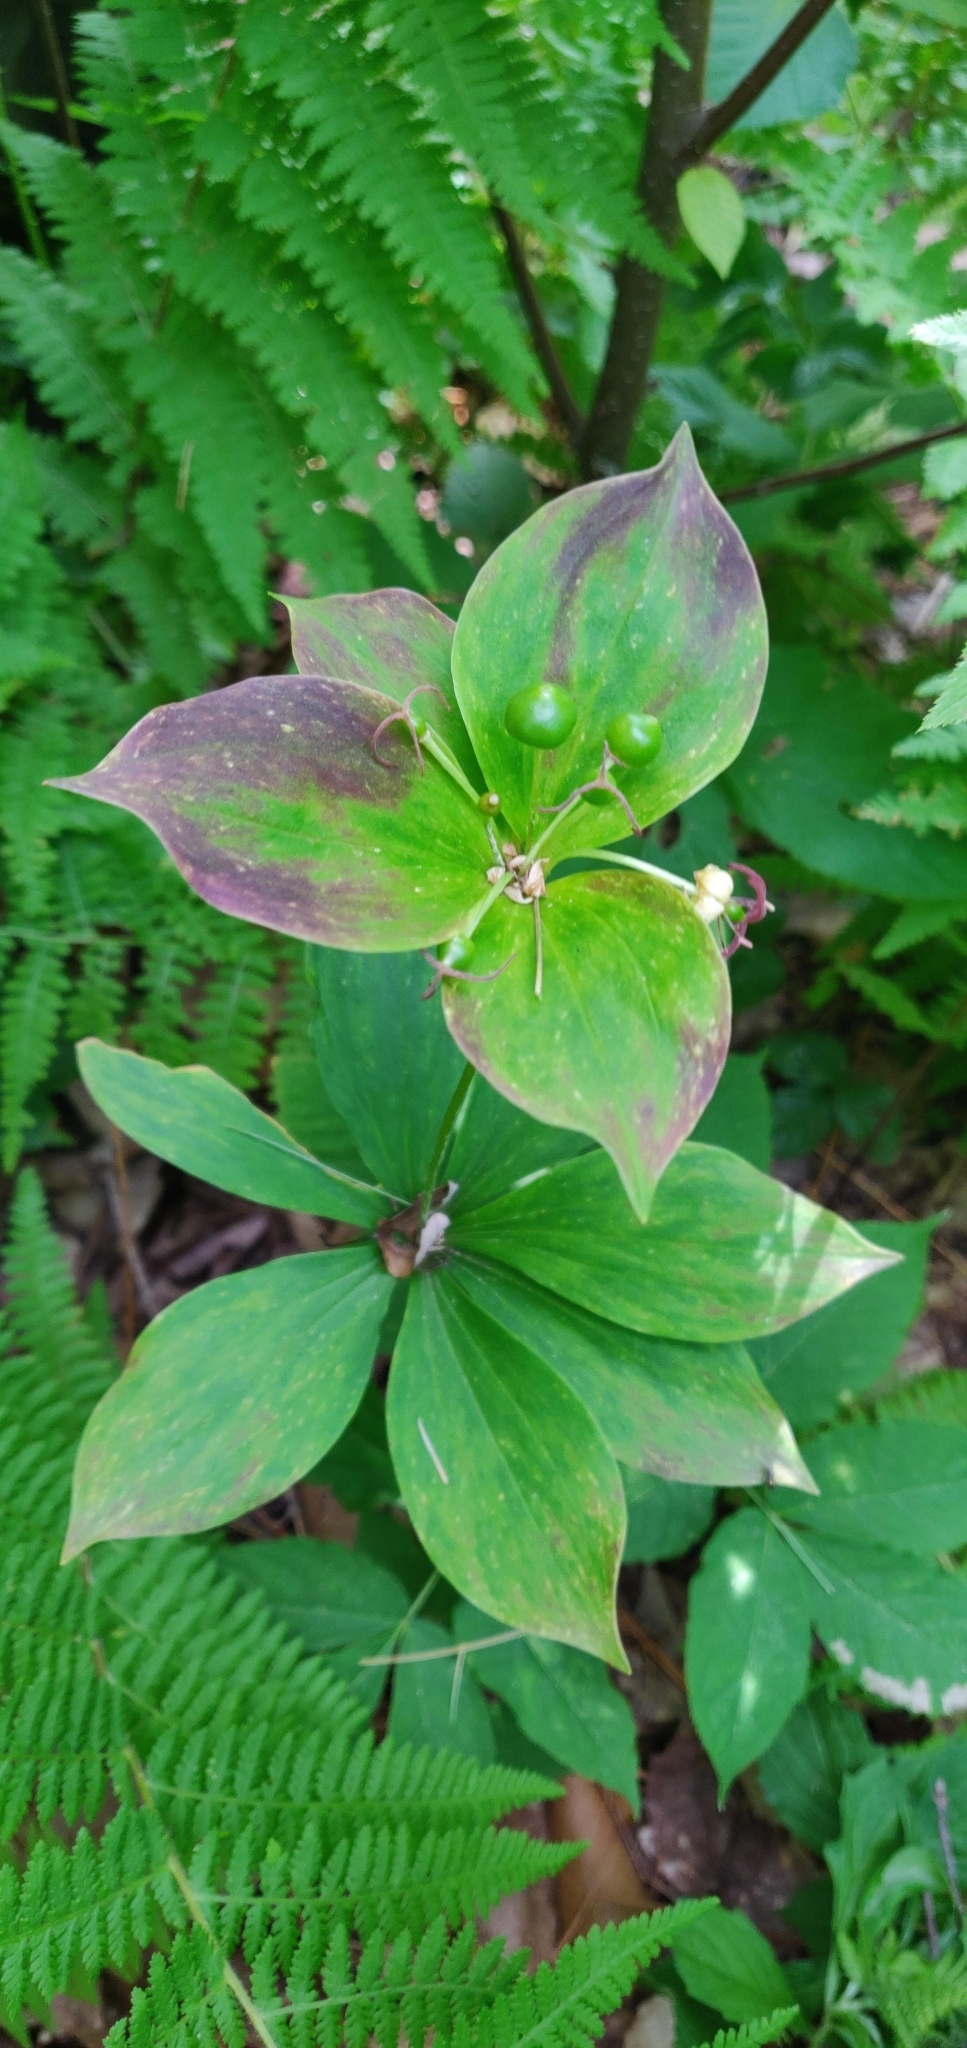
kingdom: Plantae
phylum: Tracheophyta
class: Liliopsida
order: Liliales
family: Liliaceae
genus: Medeola
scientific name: Medeola virginiana
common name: Indian cucumber-root
